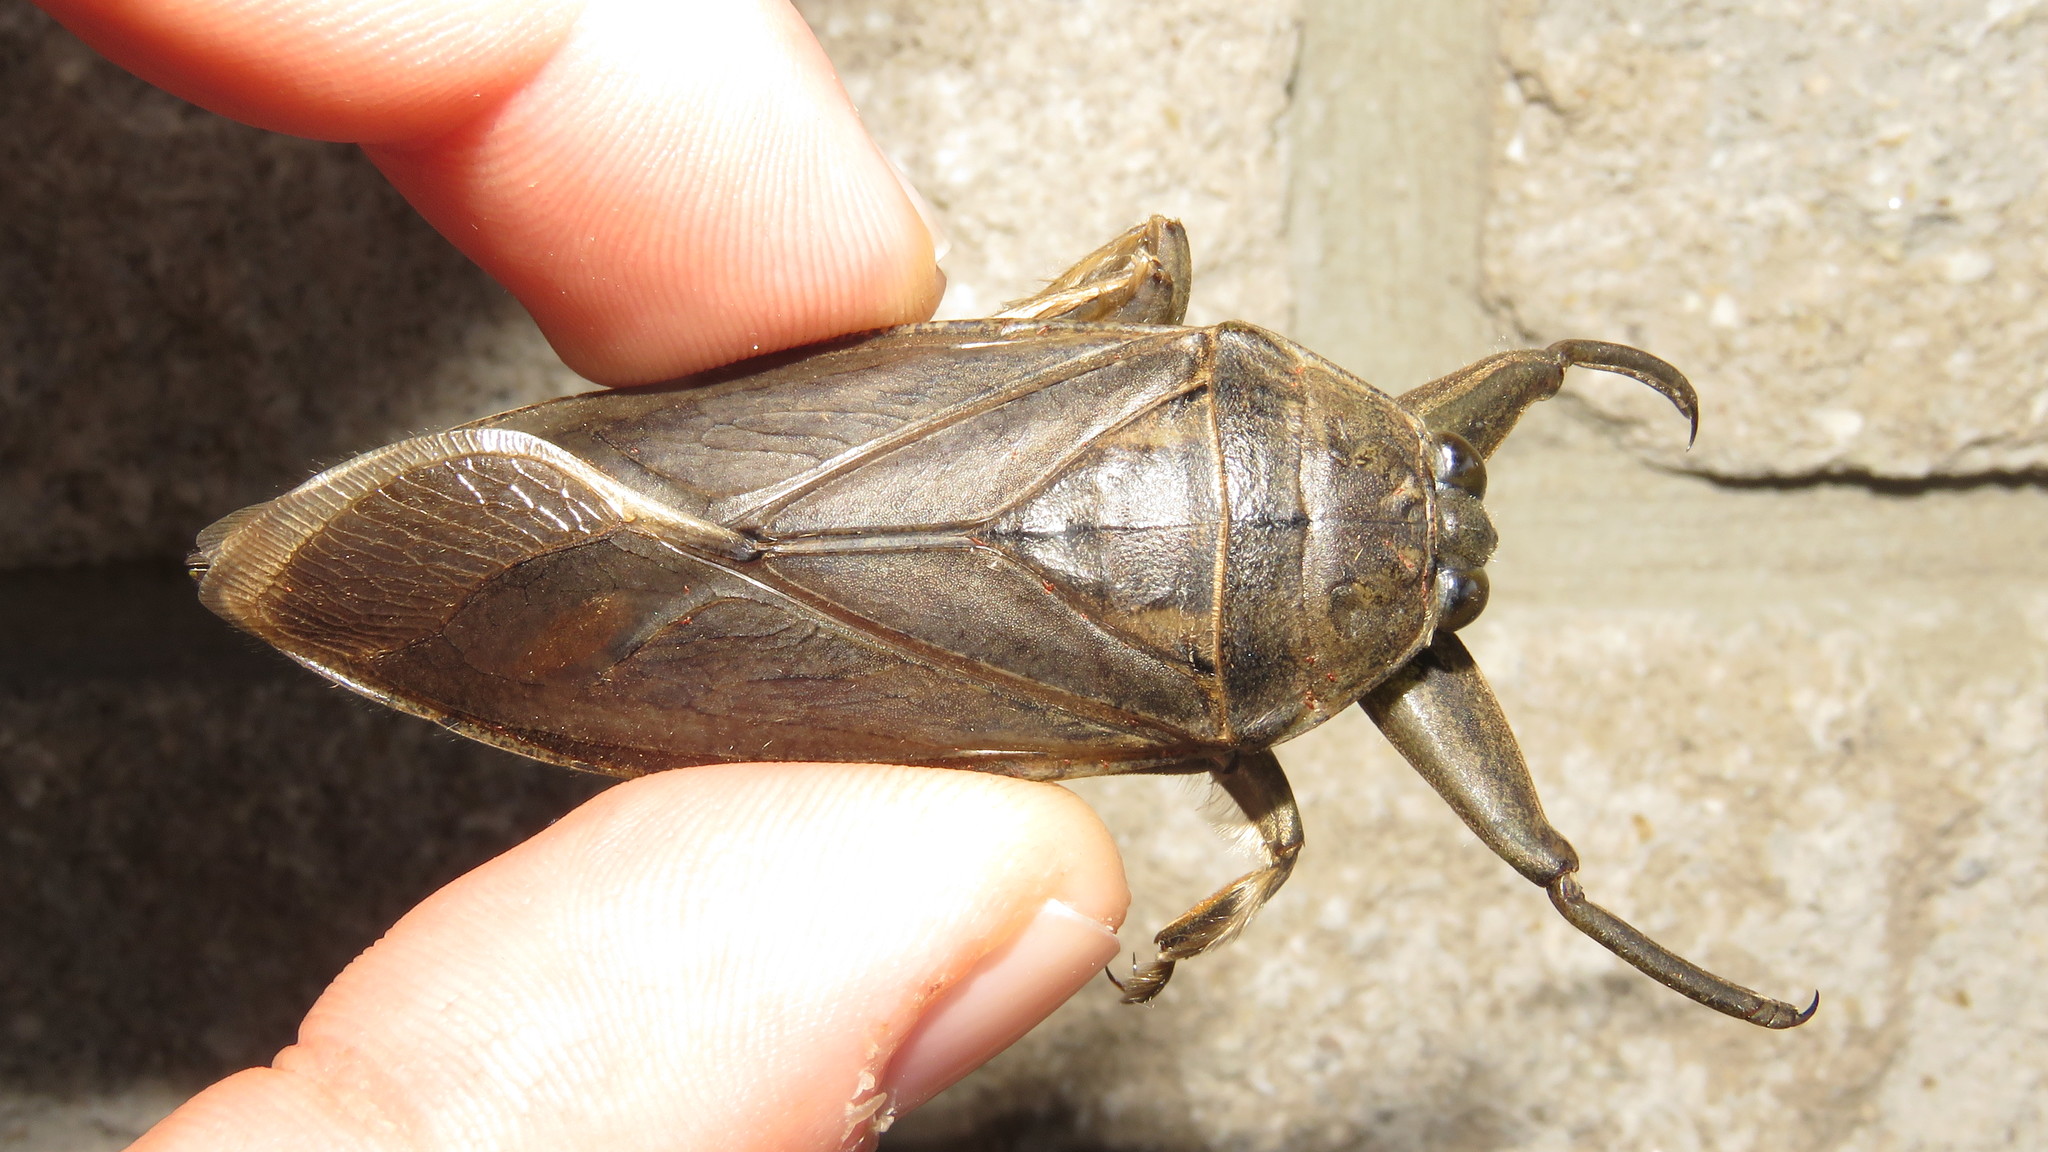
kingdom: Animalia
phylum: Arthropoda
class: Insecta
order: Hemiptera
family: Belostomatidae
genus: Lethocerus
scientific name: Lethocerus americanus
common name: Giant water bug
